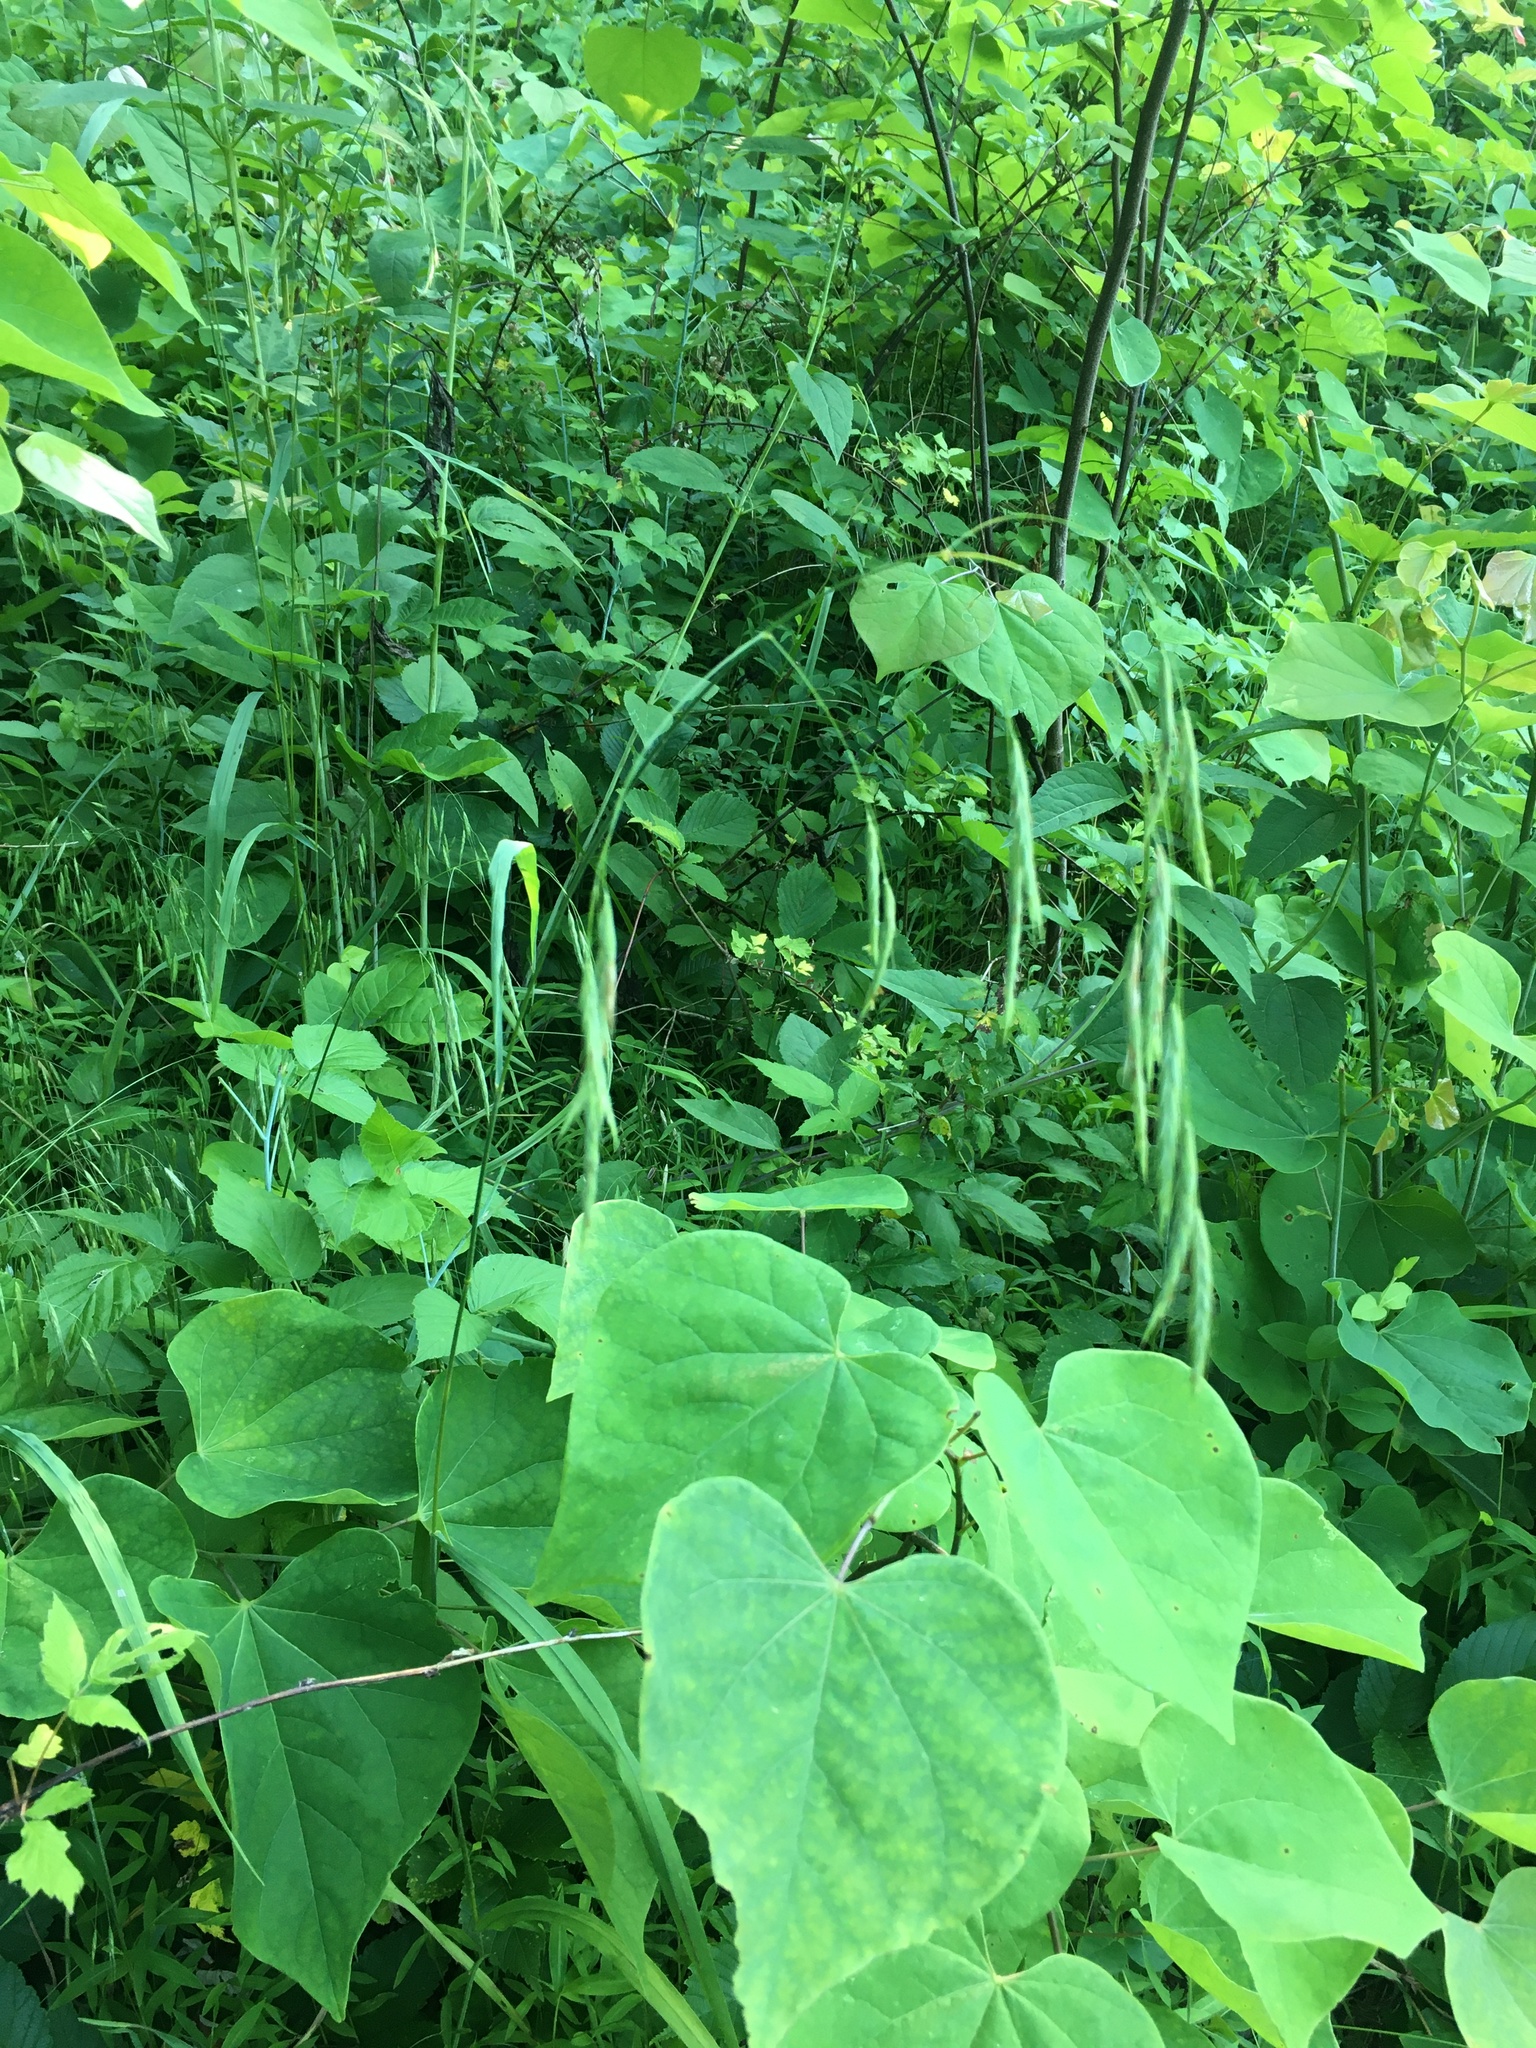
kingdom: Plantae
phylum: Tracheophyta
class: Liliopsida
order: Poales
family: Poaceae
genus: Bromus
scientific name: Bromus pubescens
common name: Hairy wood brome grass
